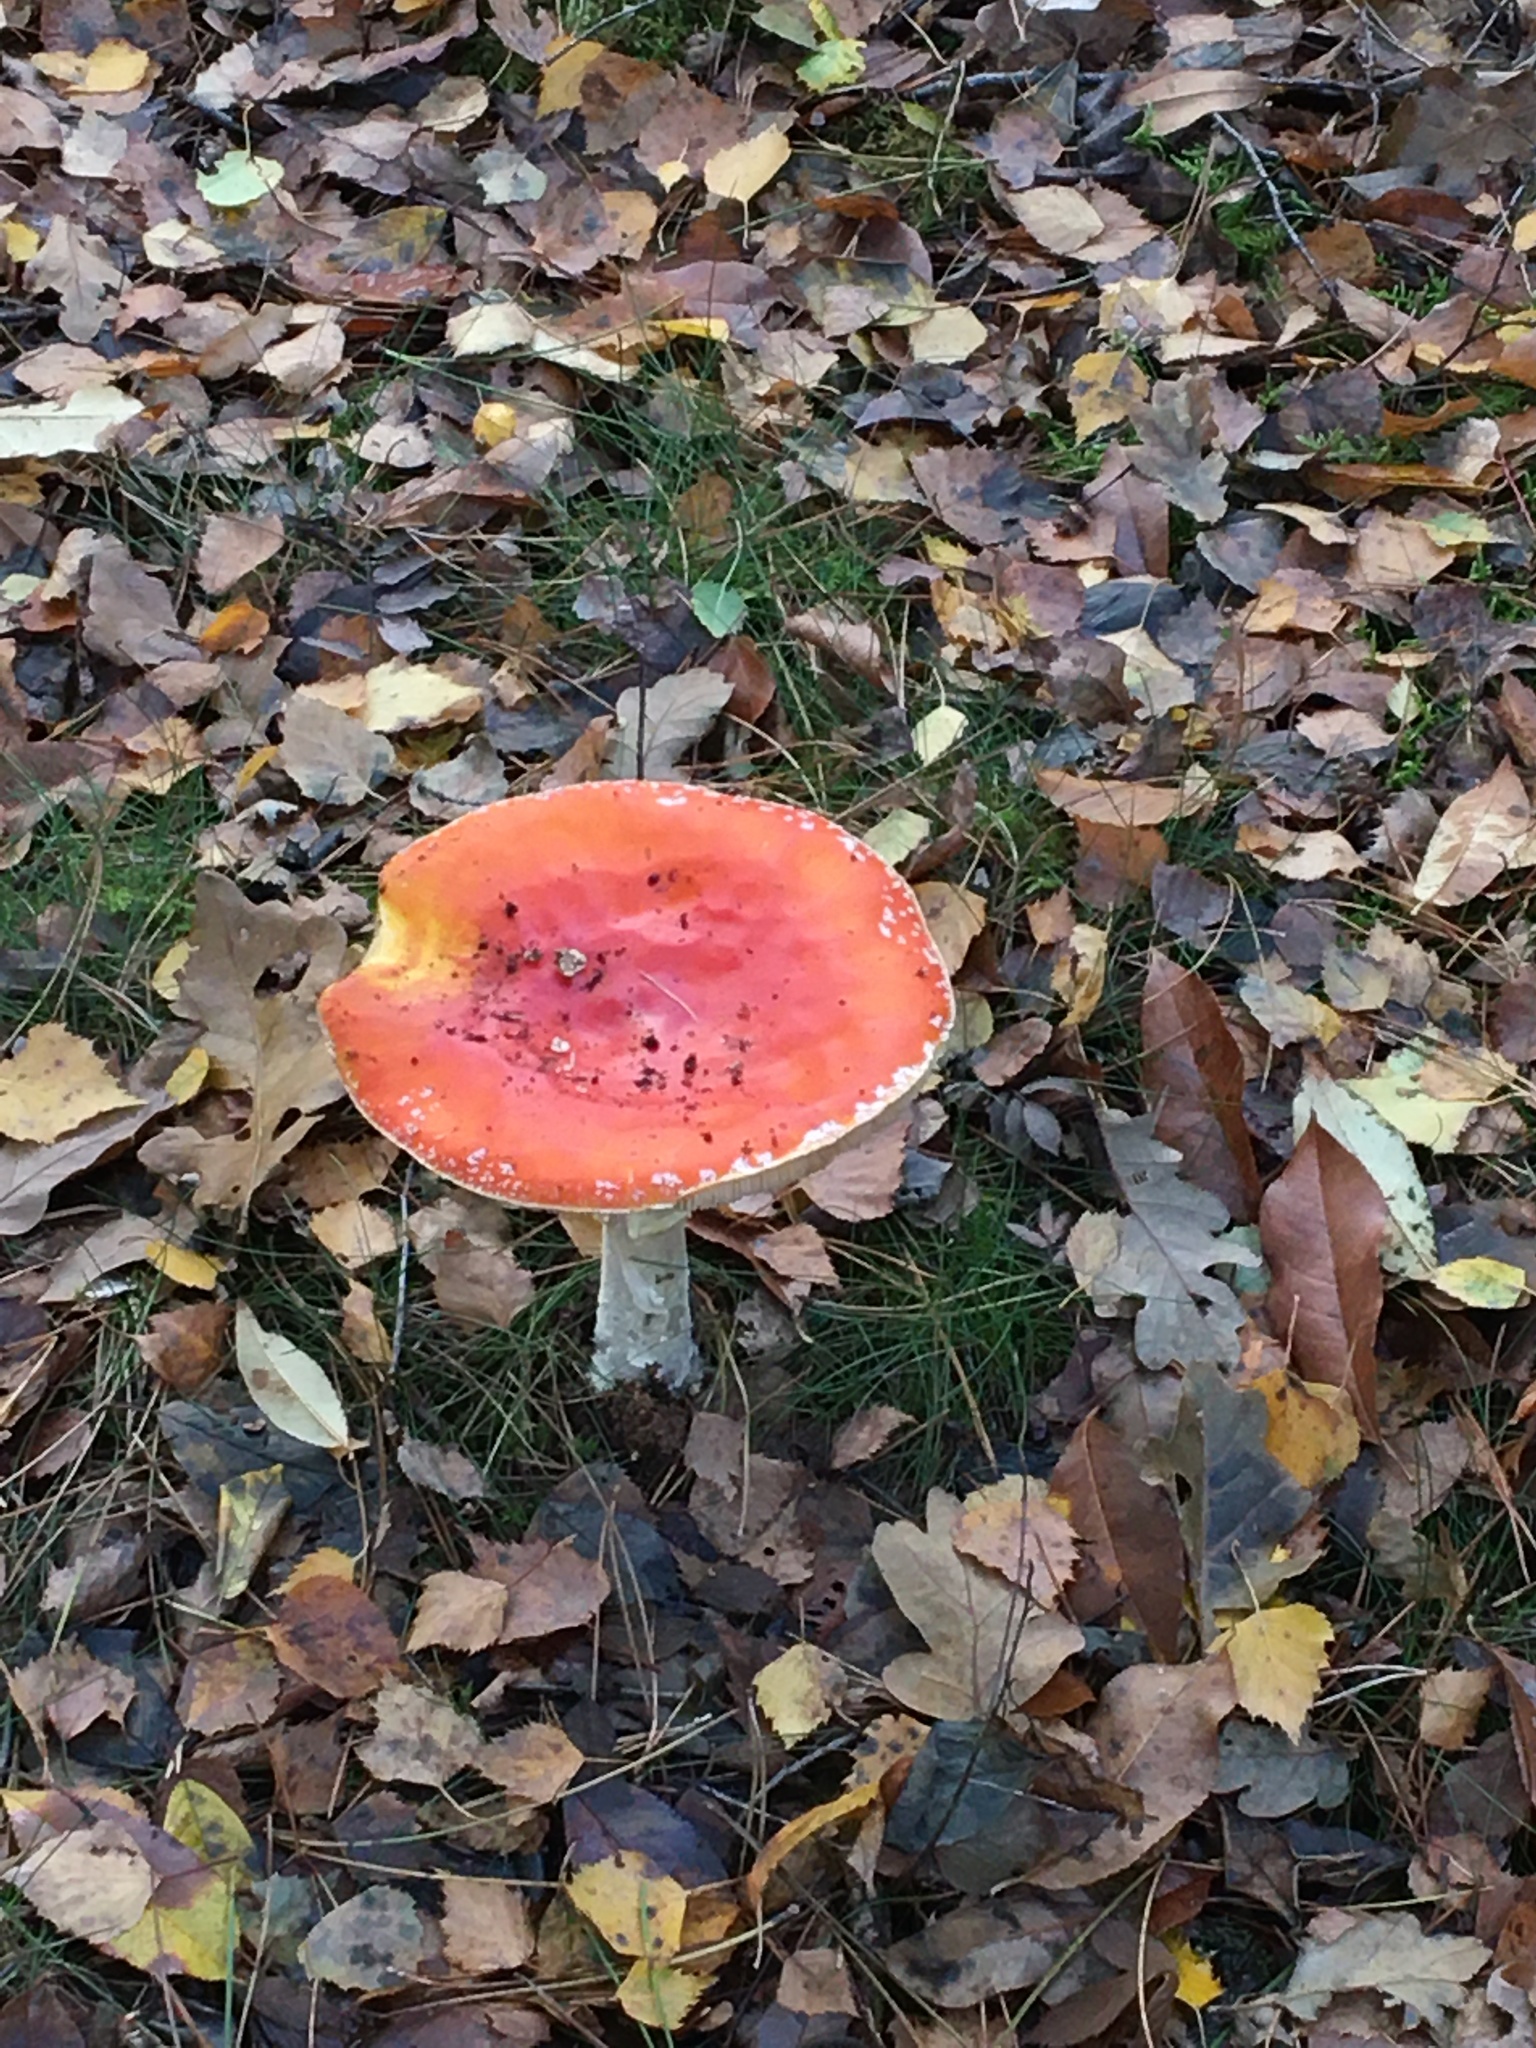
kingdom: Fungi
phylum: Basidiomycota
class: Agaricomycetes
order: Agaricales
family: Amanitaceae
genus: Amanita
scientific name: Amanita muscaria
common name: Fly agaric
